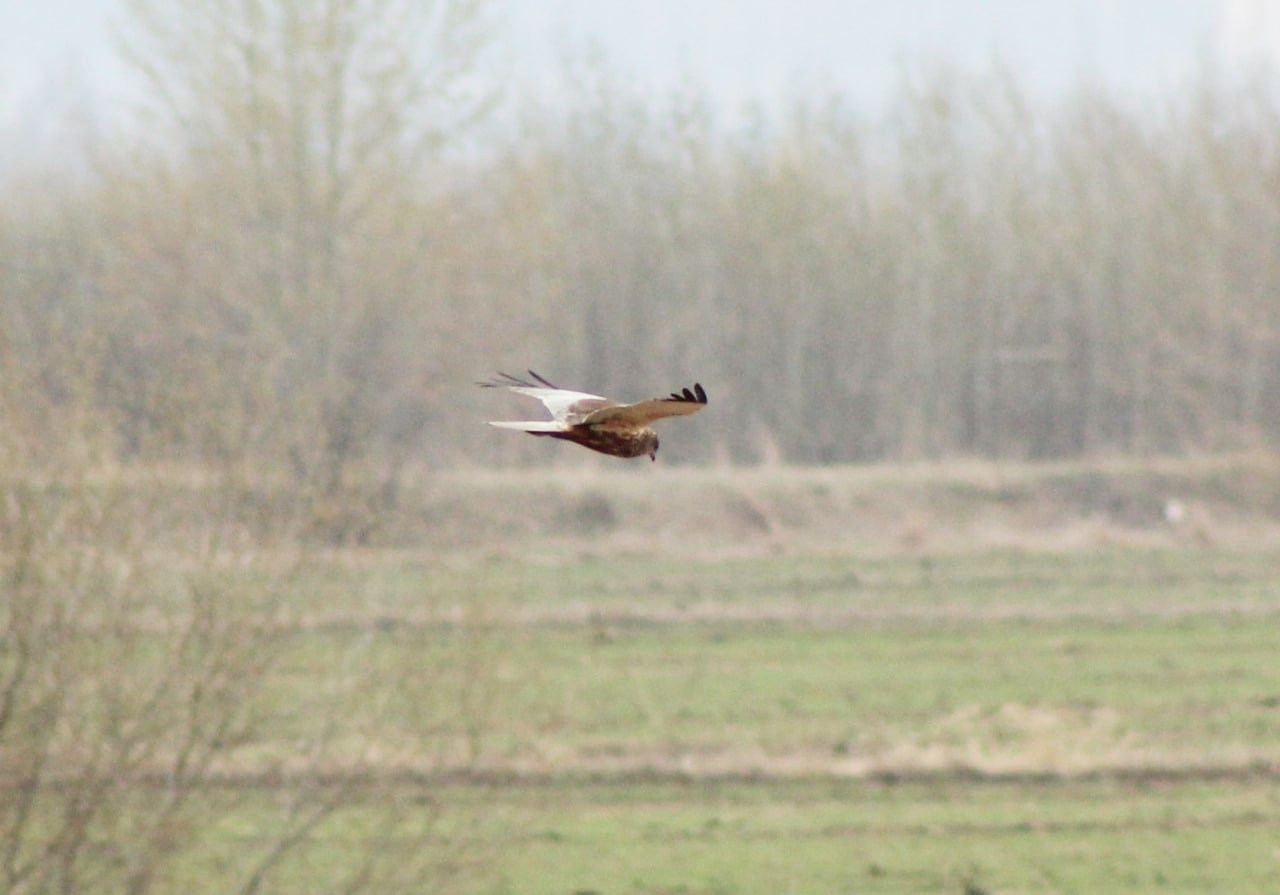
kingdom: Animalia
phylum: Chordata
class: Aves
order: Accipitriformes
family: Accipitridae
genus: Circus
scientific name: Circus aeruginosus
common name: Western marsh harrier
